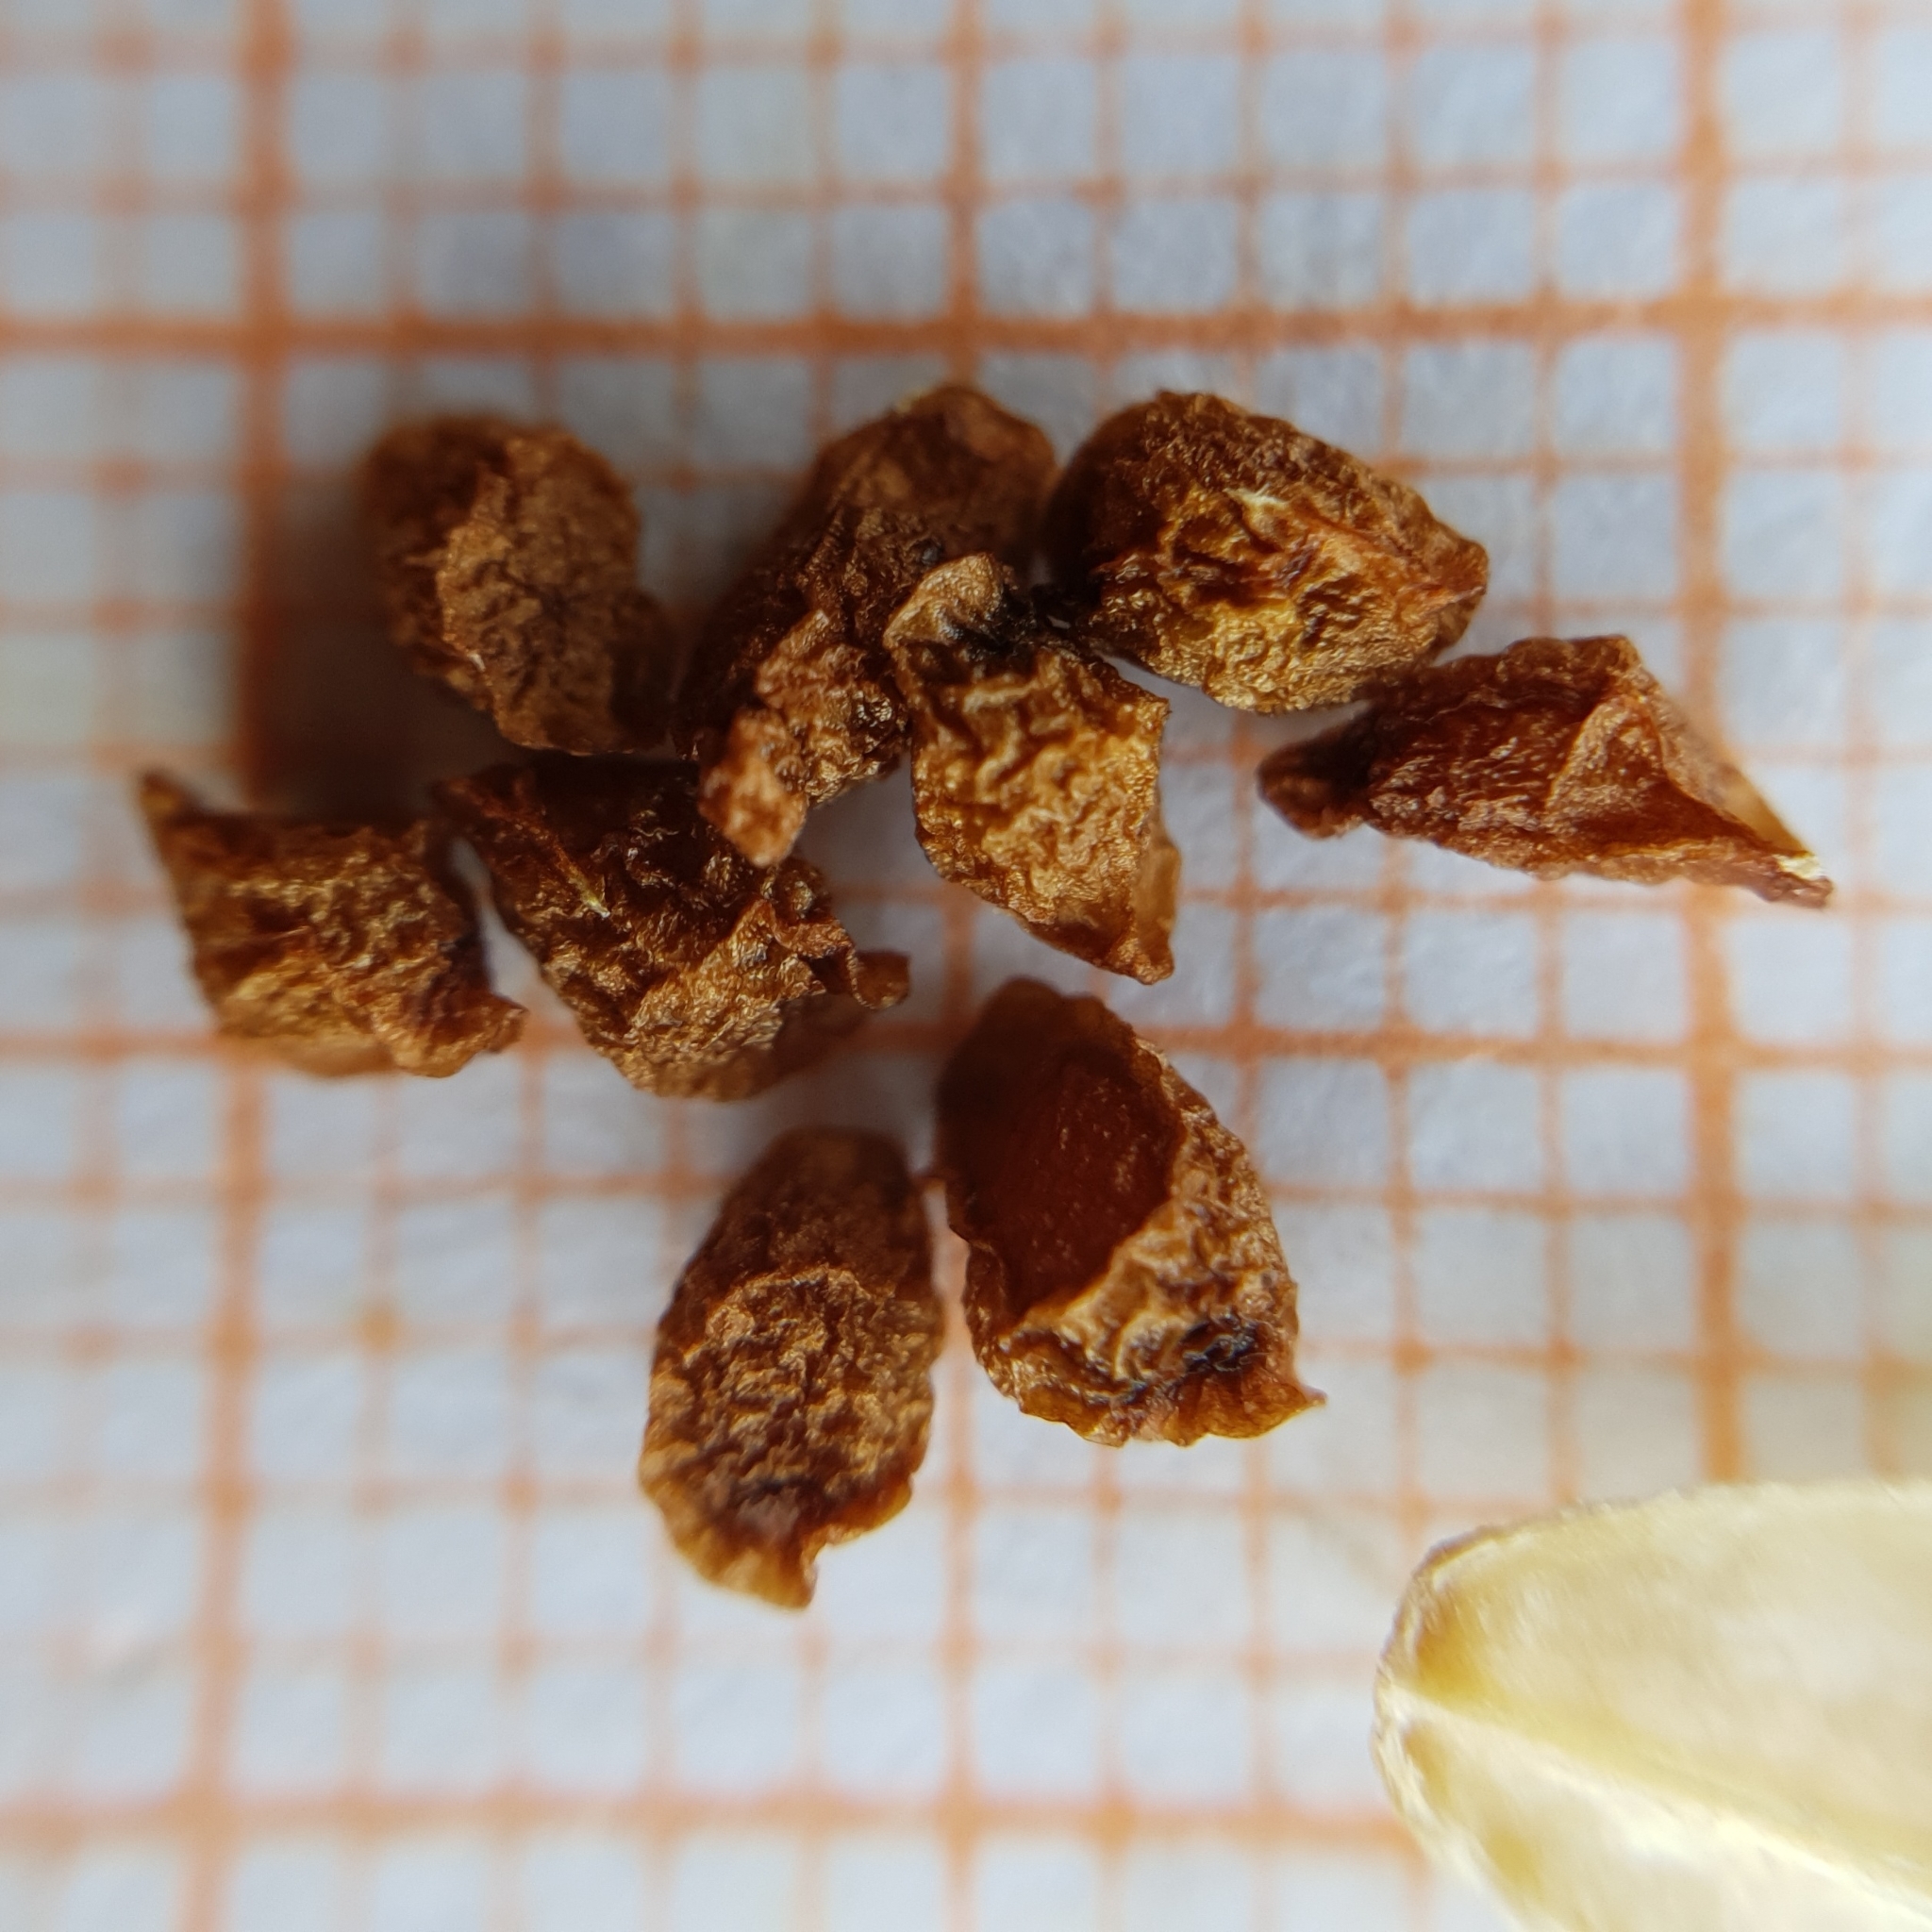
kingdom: Plantae
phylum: Tracheophyta
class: Liliopsida
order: Asparagales
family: Iridaceae
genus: Iris
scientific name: Iris juncea
